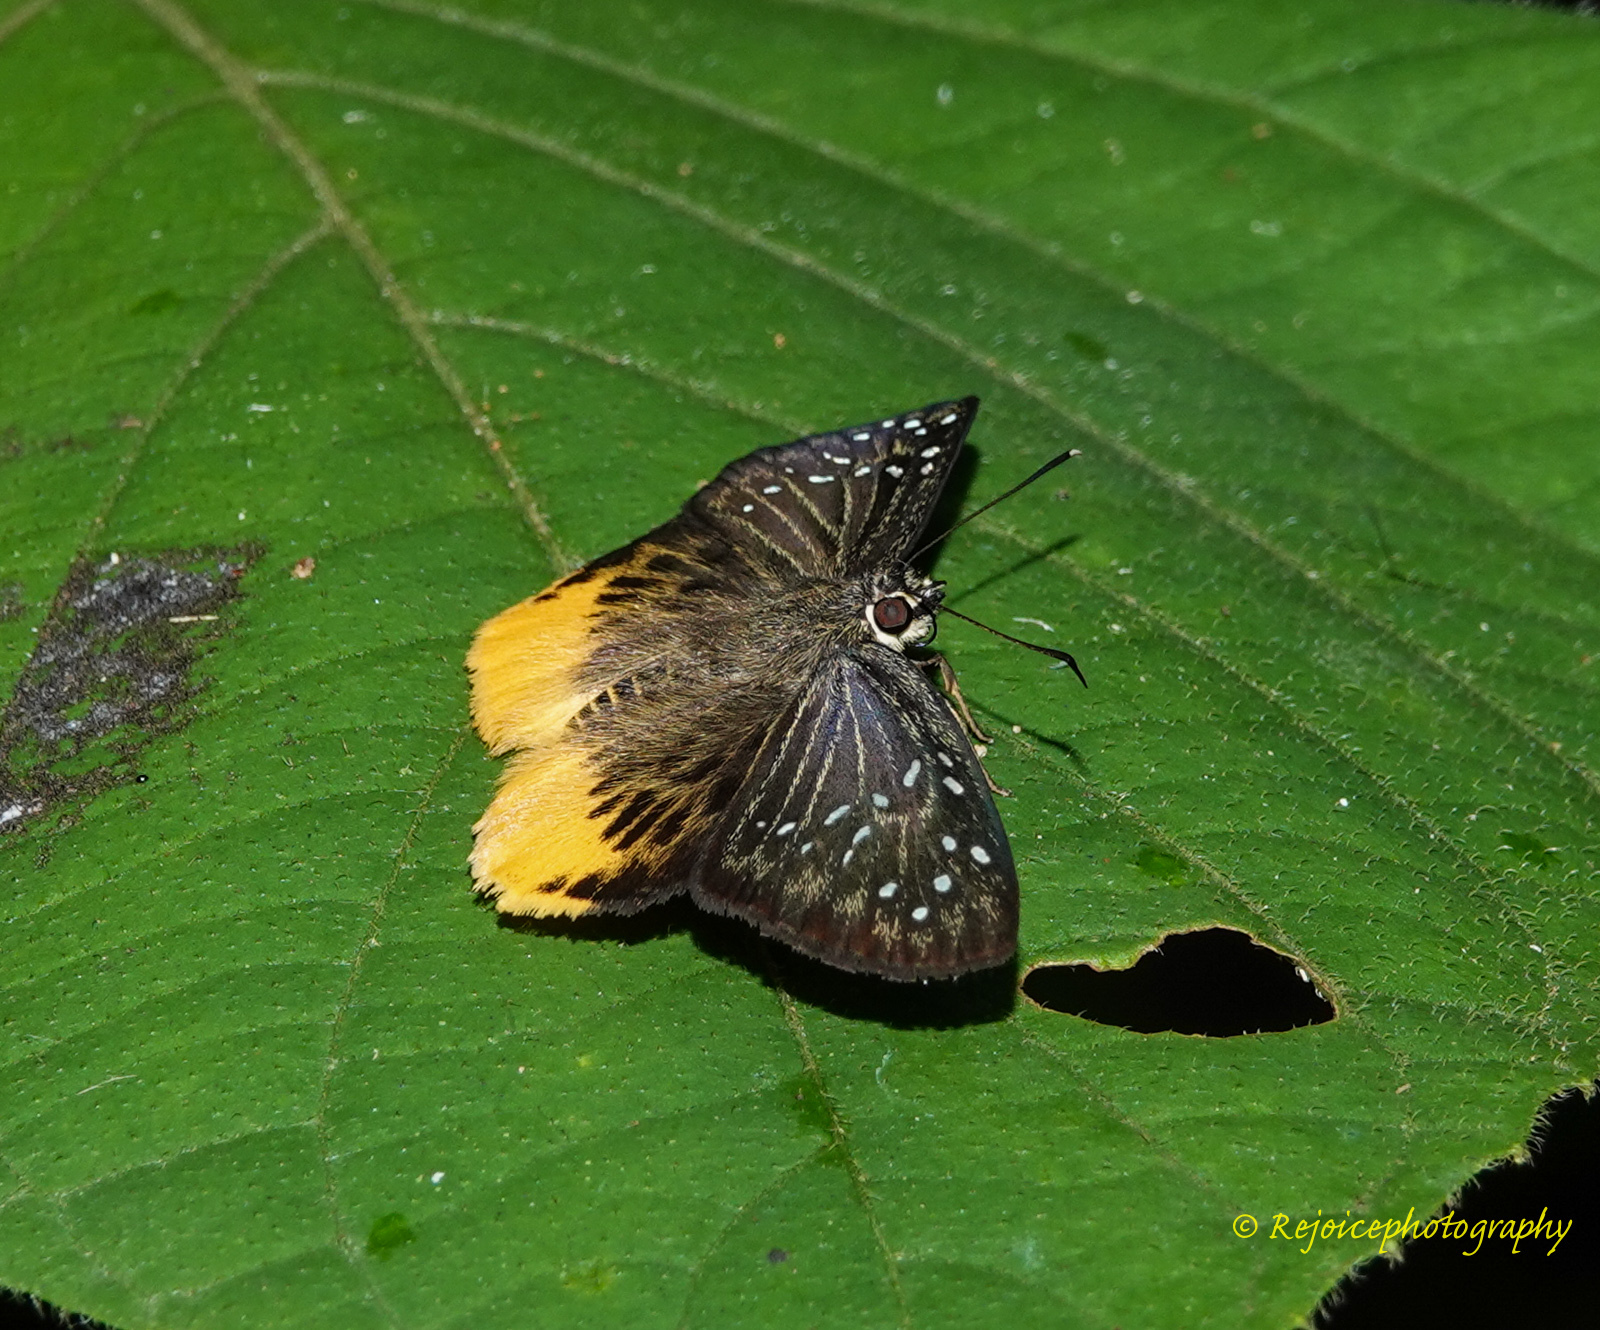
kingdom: Animalia
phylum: Arthropoda
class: Insecta
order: Lepidoptera
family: Hesperiidae
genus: Mooreana
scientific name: Mooreana trichoneura
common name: Yellow flat
